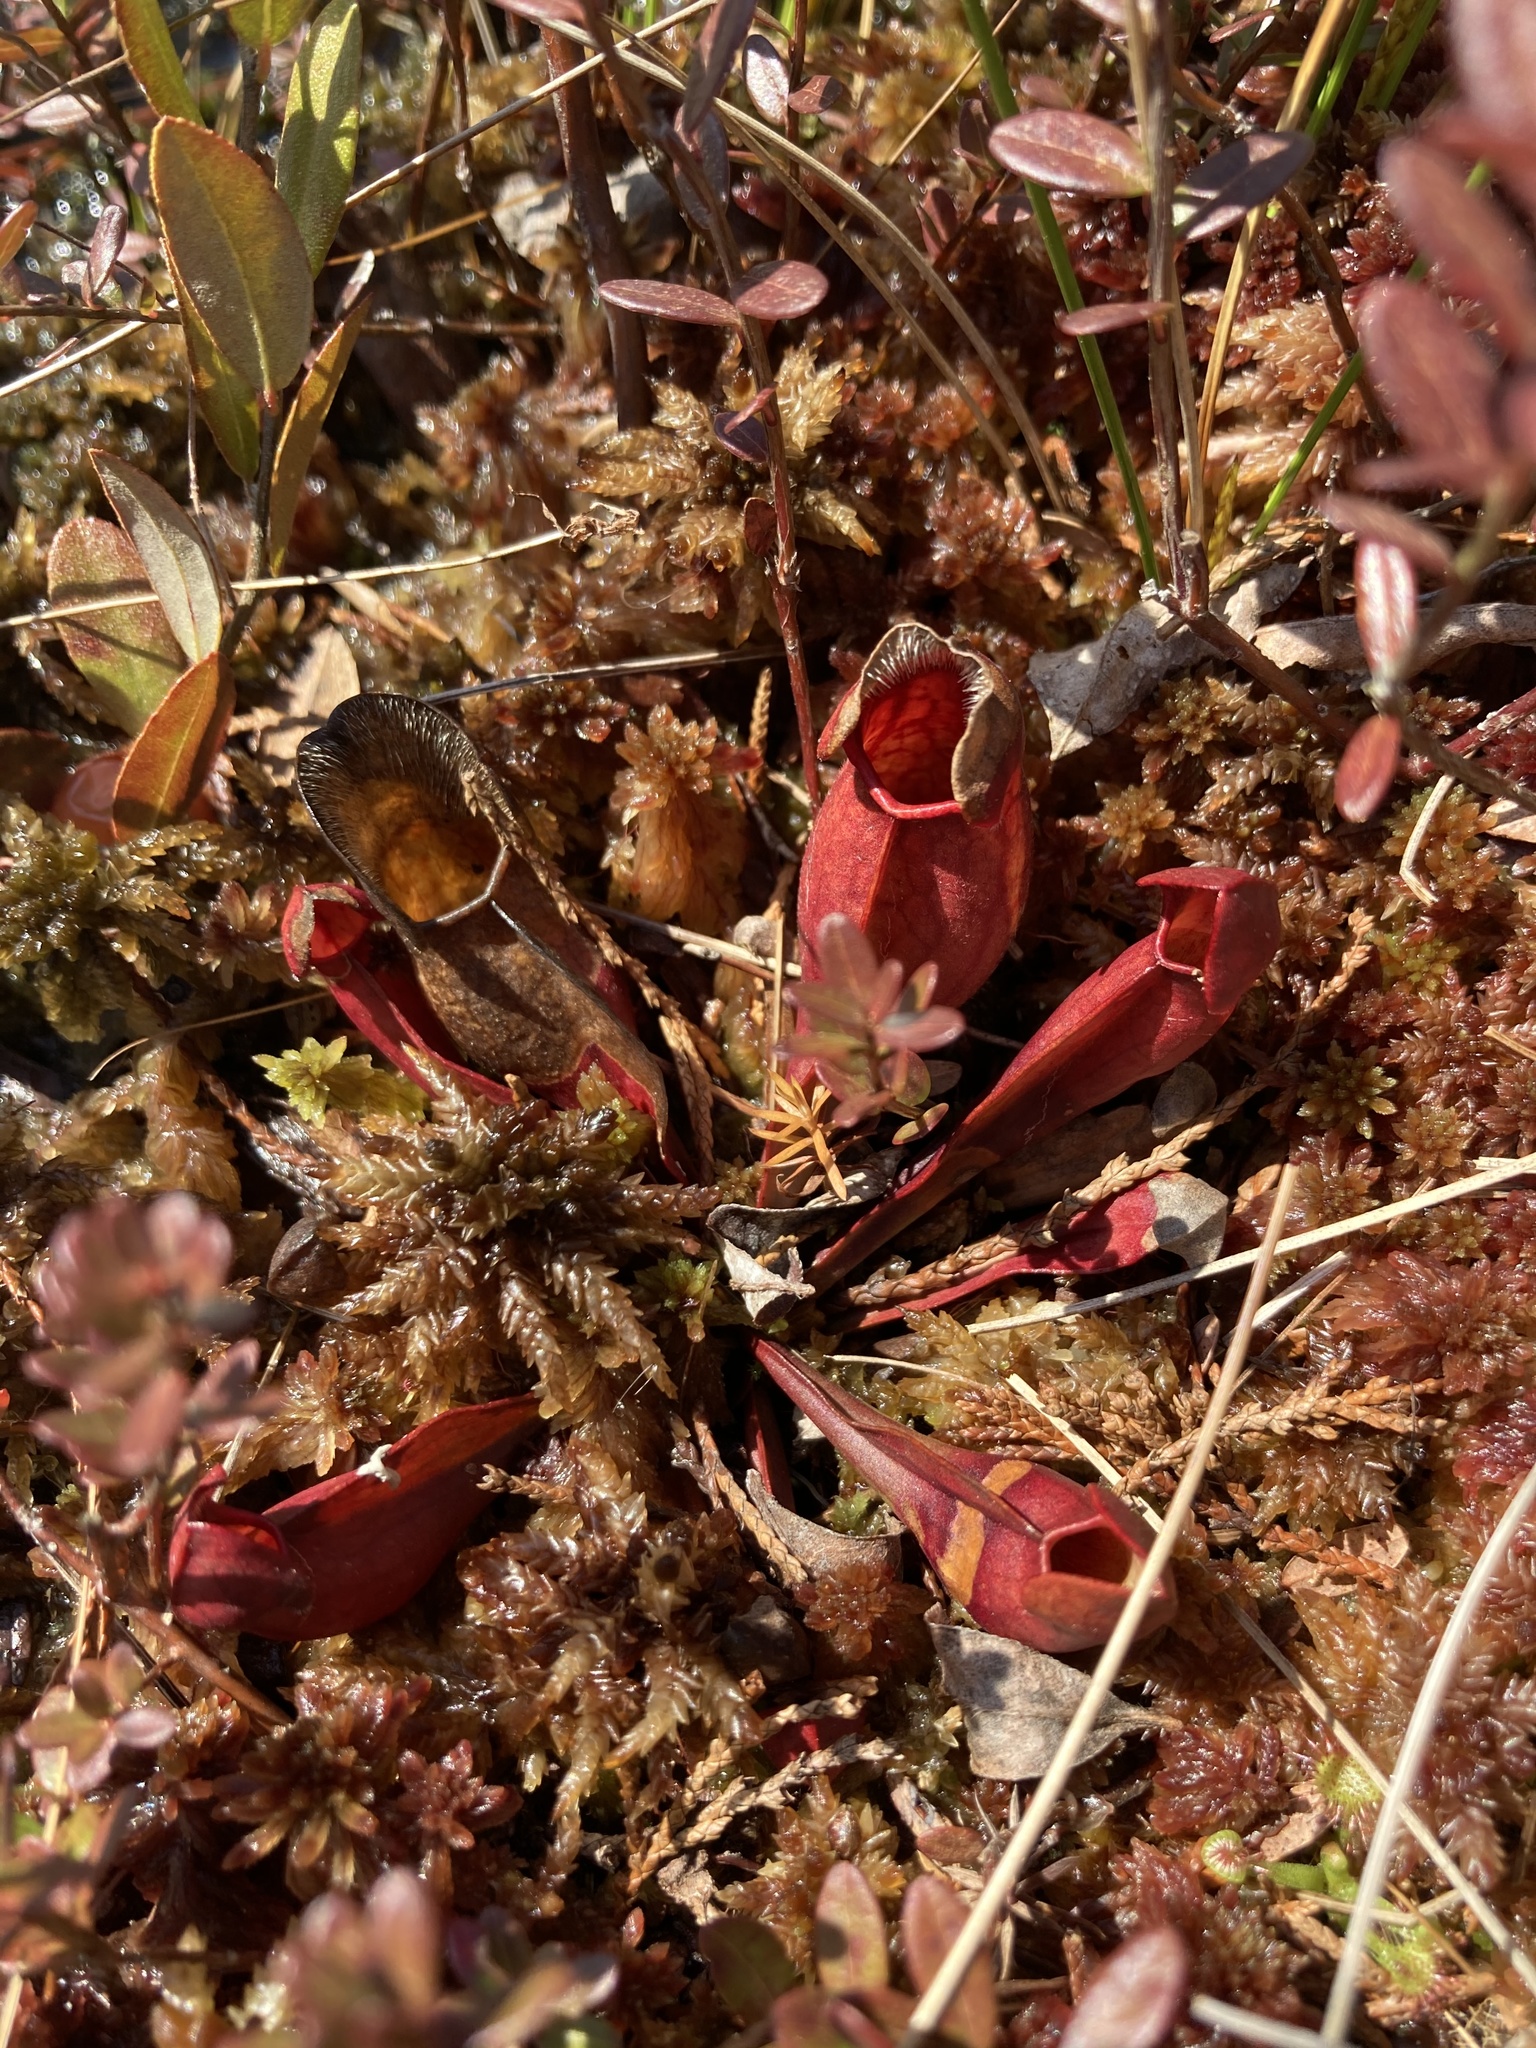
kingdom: Plantae
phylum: Tracheophyta
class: Magnoliopsida
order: Ericales
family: Sarraceniaceae
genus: Sarracenia
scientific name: Sarracenia purpurea
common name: Pitcherplant
